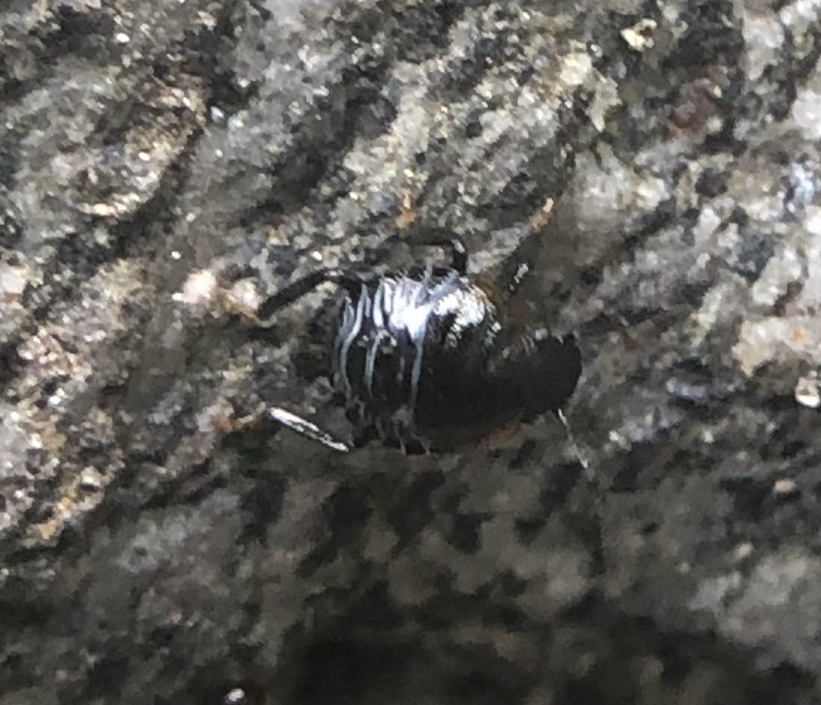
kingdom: Animalia
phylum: Arthropoda
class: Insecta
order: Hemiptera
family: Pentatomidae
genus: Chinavia
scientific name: Chinavia hilaris
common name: Green stink bug
